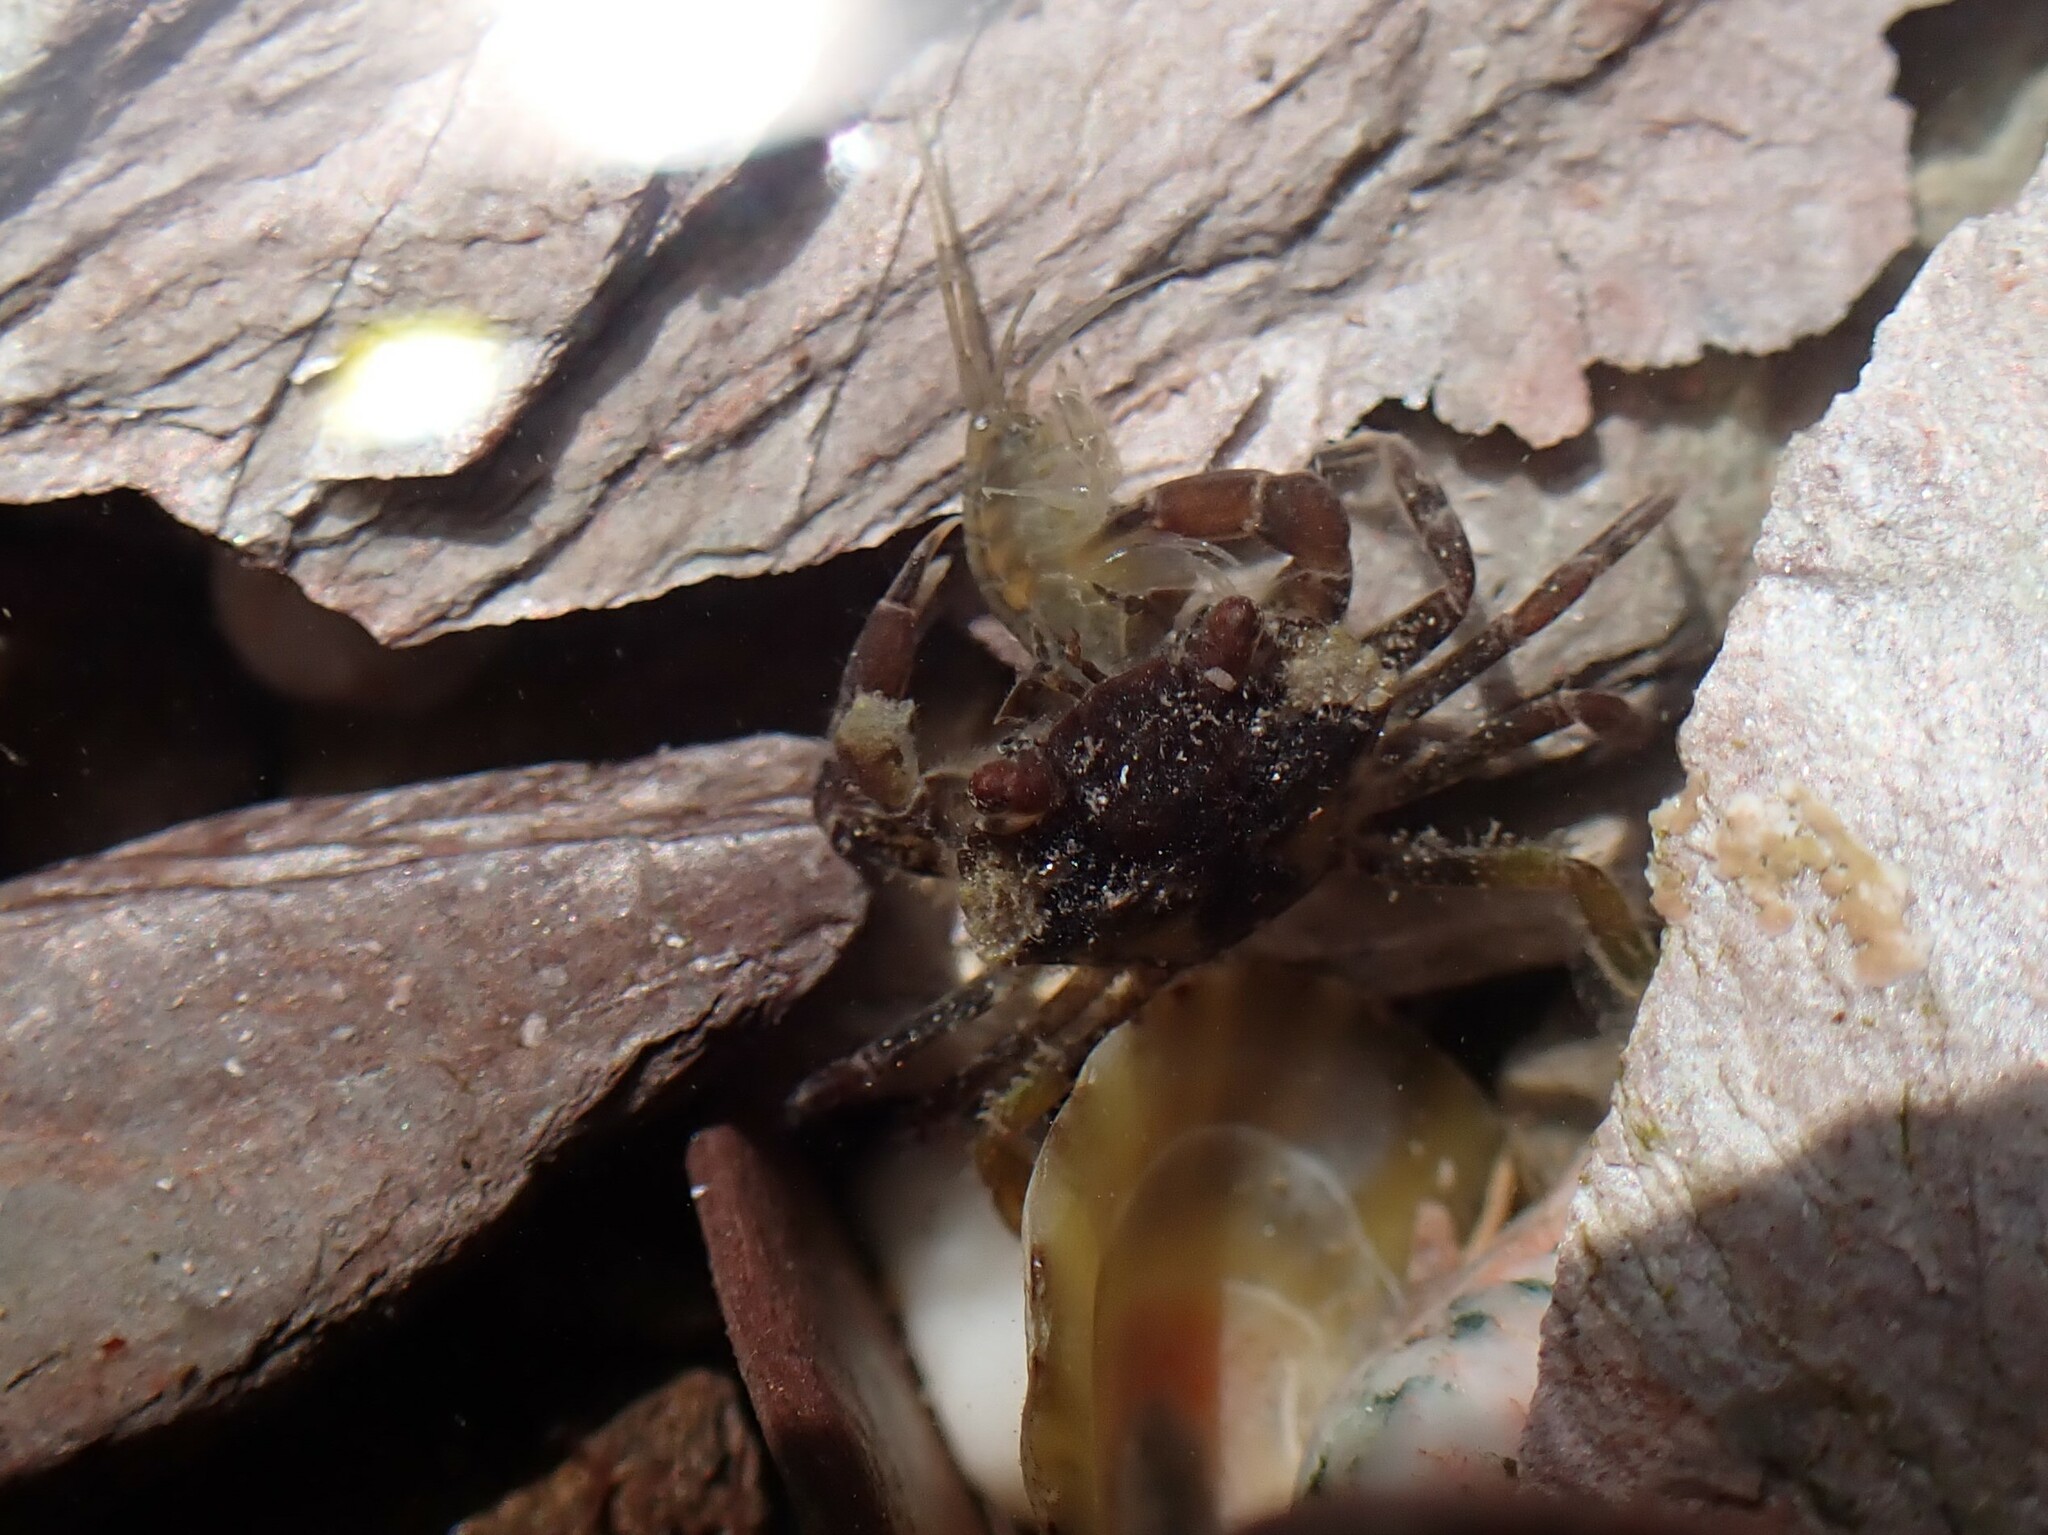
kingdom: Animalia
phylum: Arthropoda
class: Malacostraca
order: Decapoda
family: Carcinidae
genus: Carcinus
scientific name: Carcinus maenas
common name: European green crab
